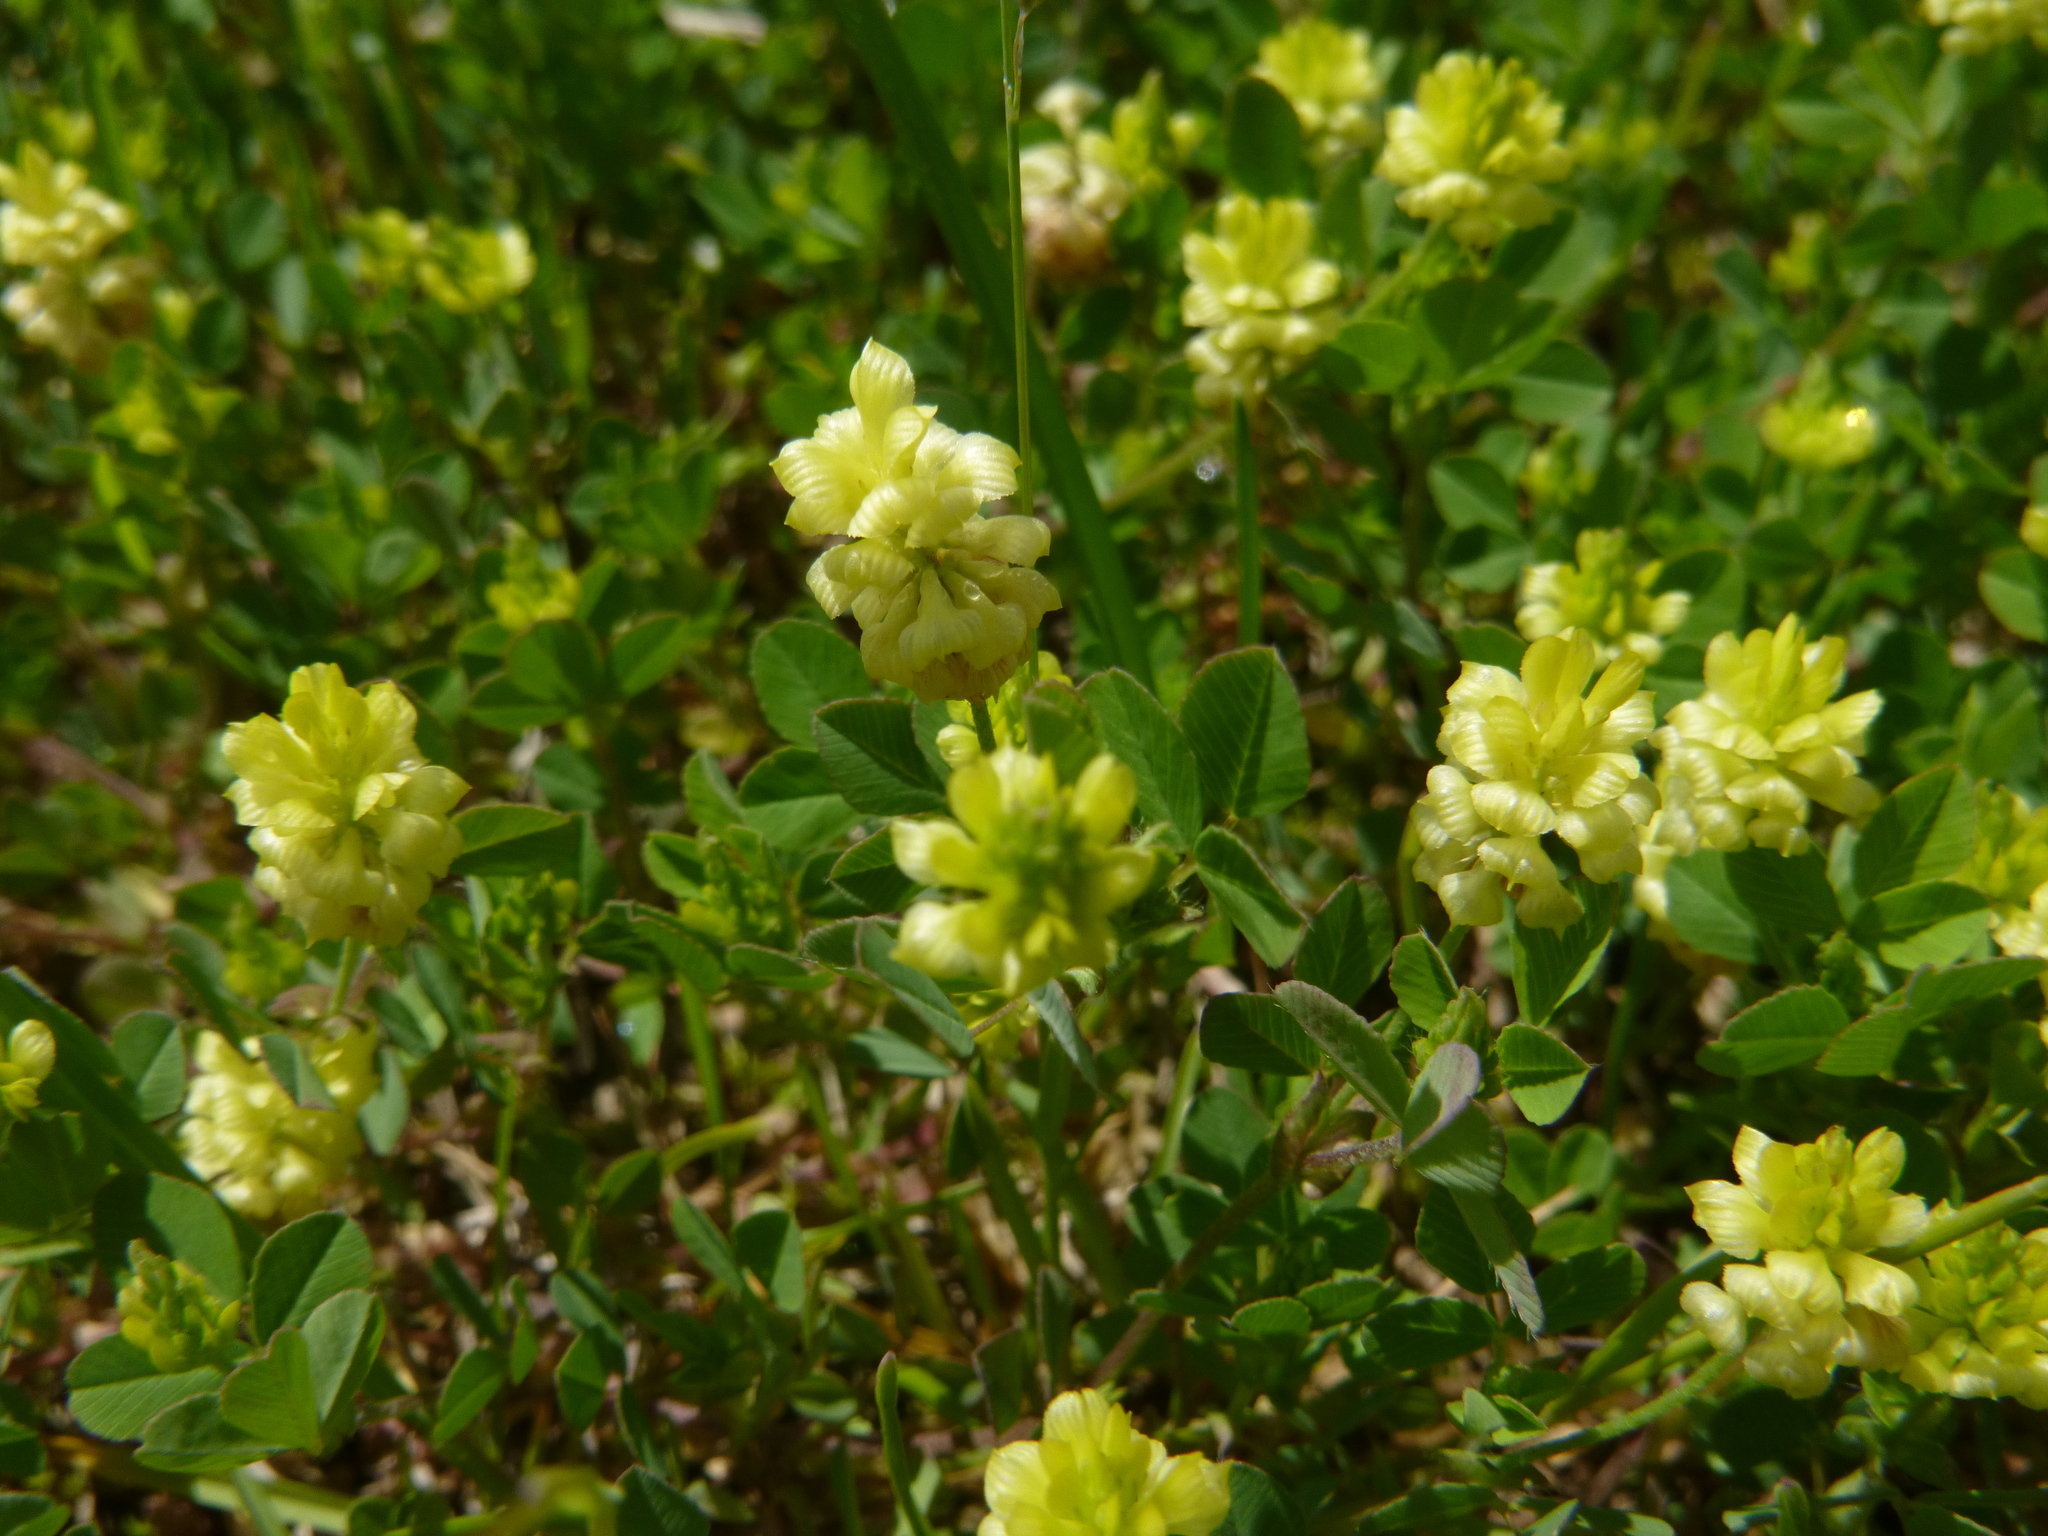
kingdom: Plantae
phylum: Tracheophyta
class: Magnoliopsida
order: Fabales
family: Fabaceae
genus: Trifolium
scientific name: Trifolium campestre
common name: Field clover
